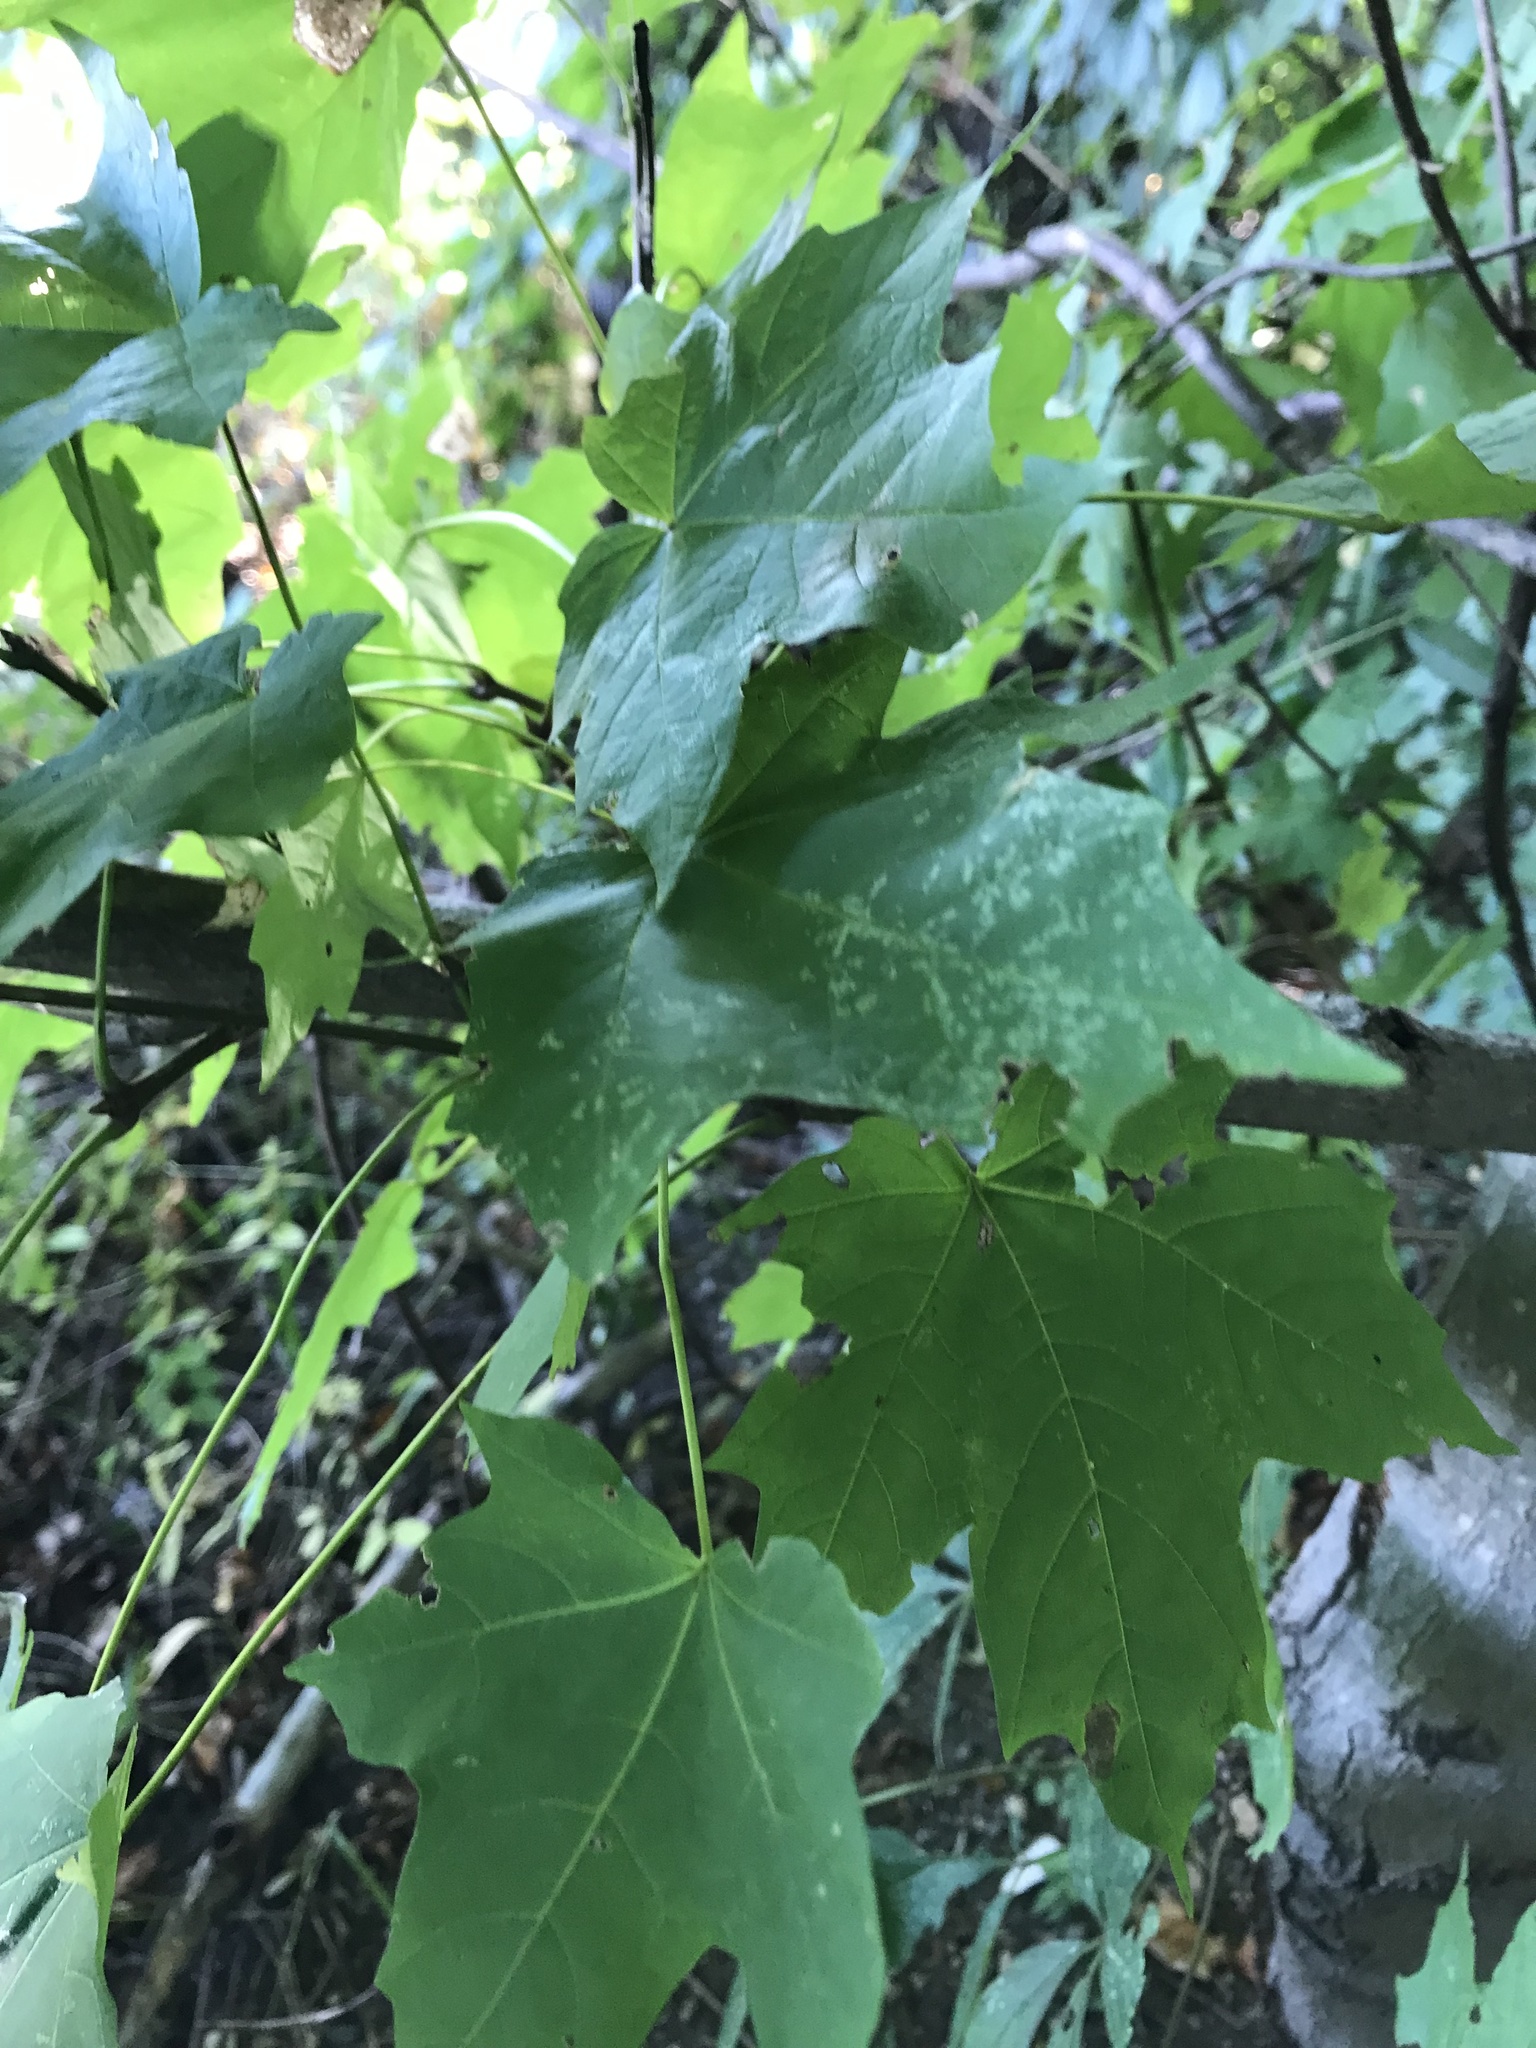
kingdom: Plantae
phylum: Tracheophyta
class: Magnoliopsida
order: Sapindales
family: Sapindaceae
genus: Acer
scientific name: Acer saccharum
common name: Sugar maple
